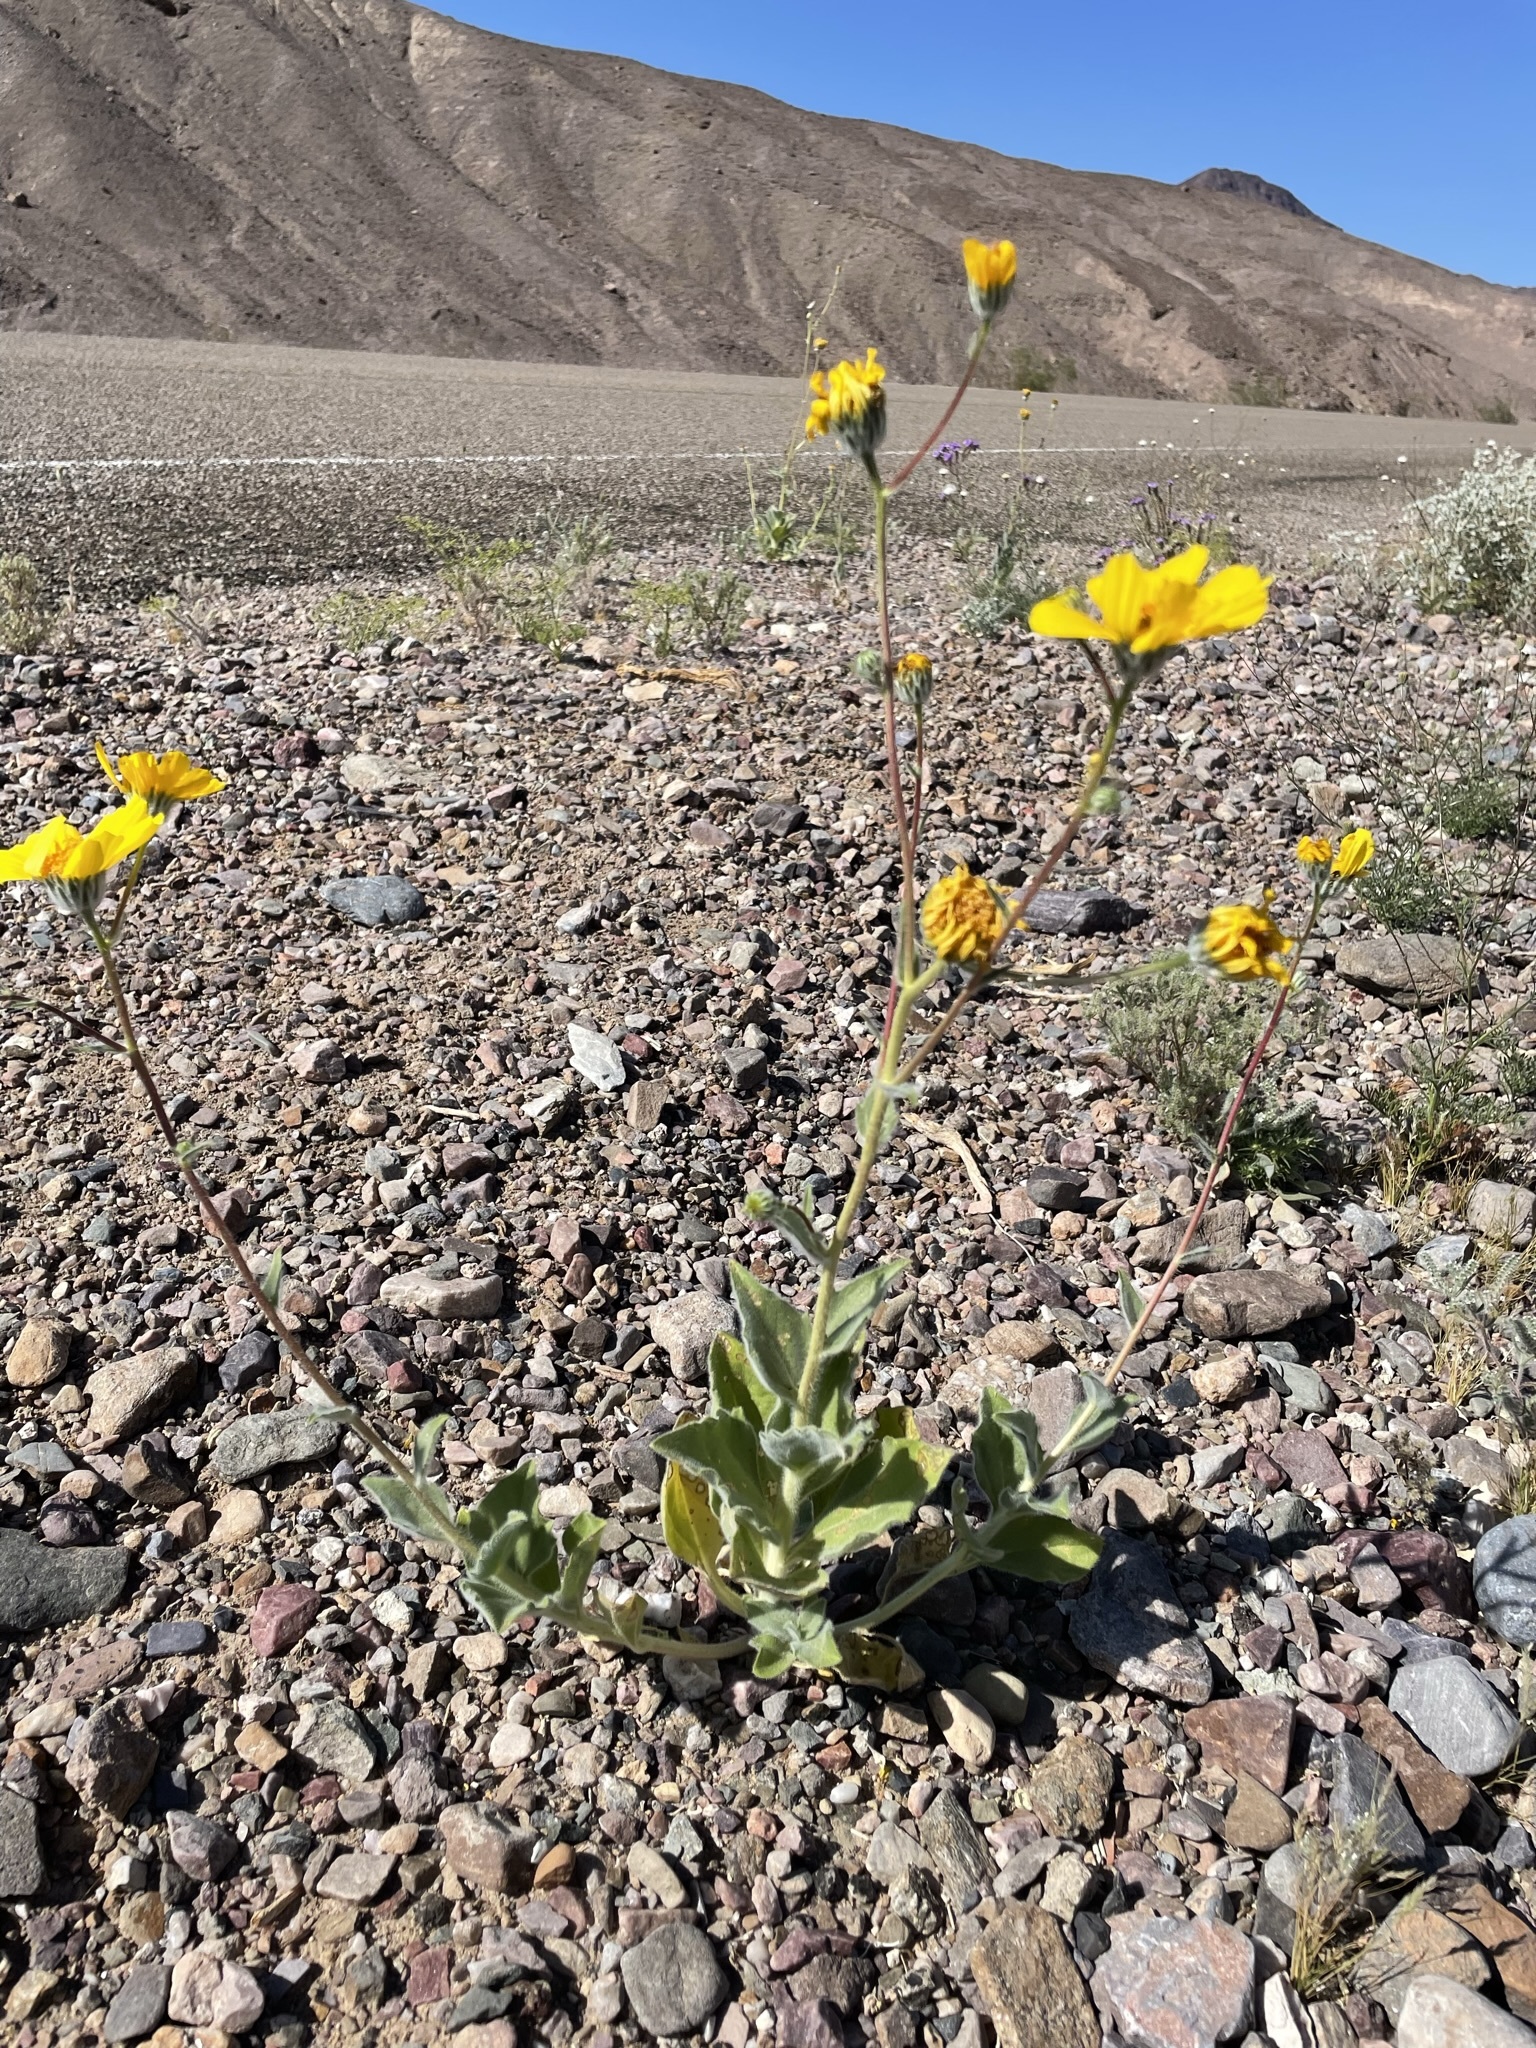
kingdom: Plantae
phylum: Tracheophyta
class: Magnoliopsida
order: Asterales
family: Asteraceae
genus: Geraea
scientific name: Geraea canescens
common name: Desert-gold
